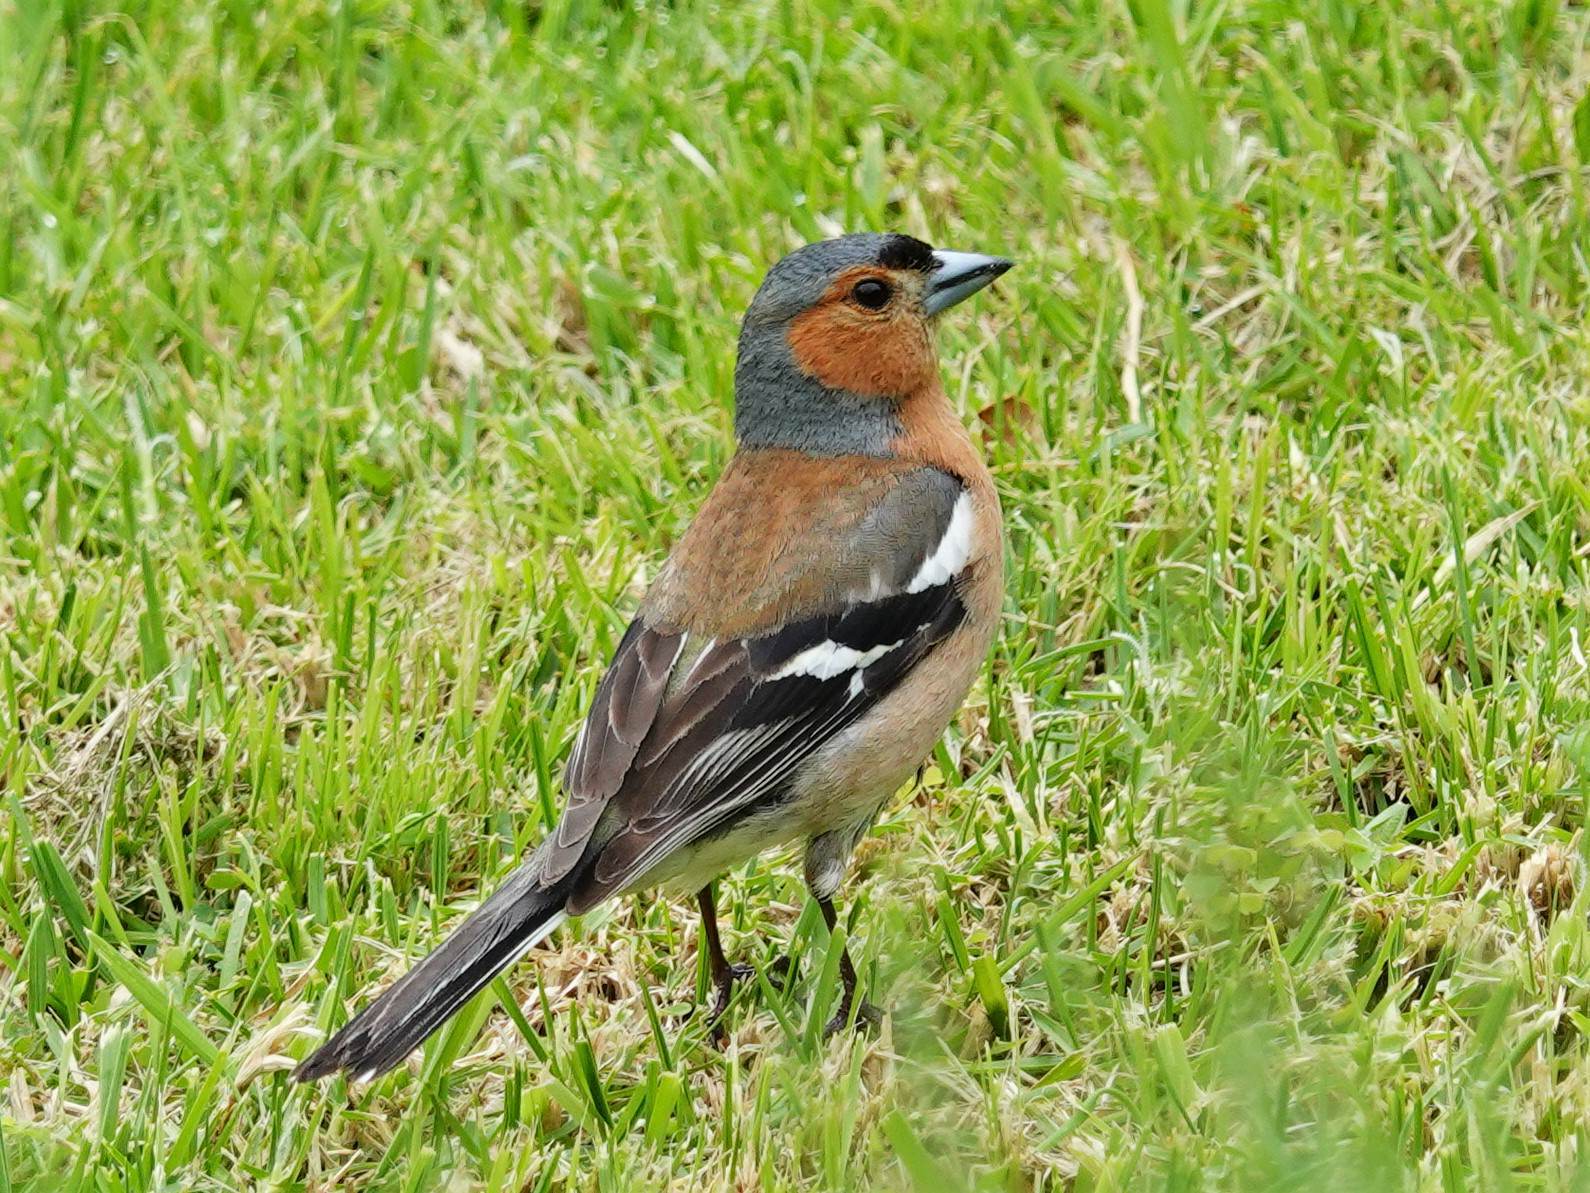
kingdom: Animalia
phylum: Chordata
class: Aves
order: Passeriformes
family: Fringillidae
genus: Fringilla
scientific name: Fringilla coelebs
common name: Common chaffinch
